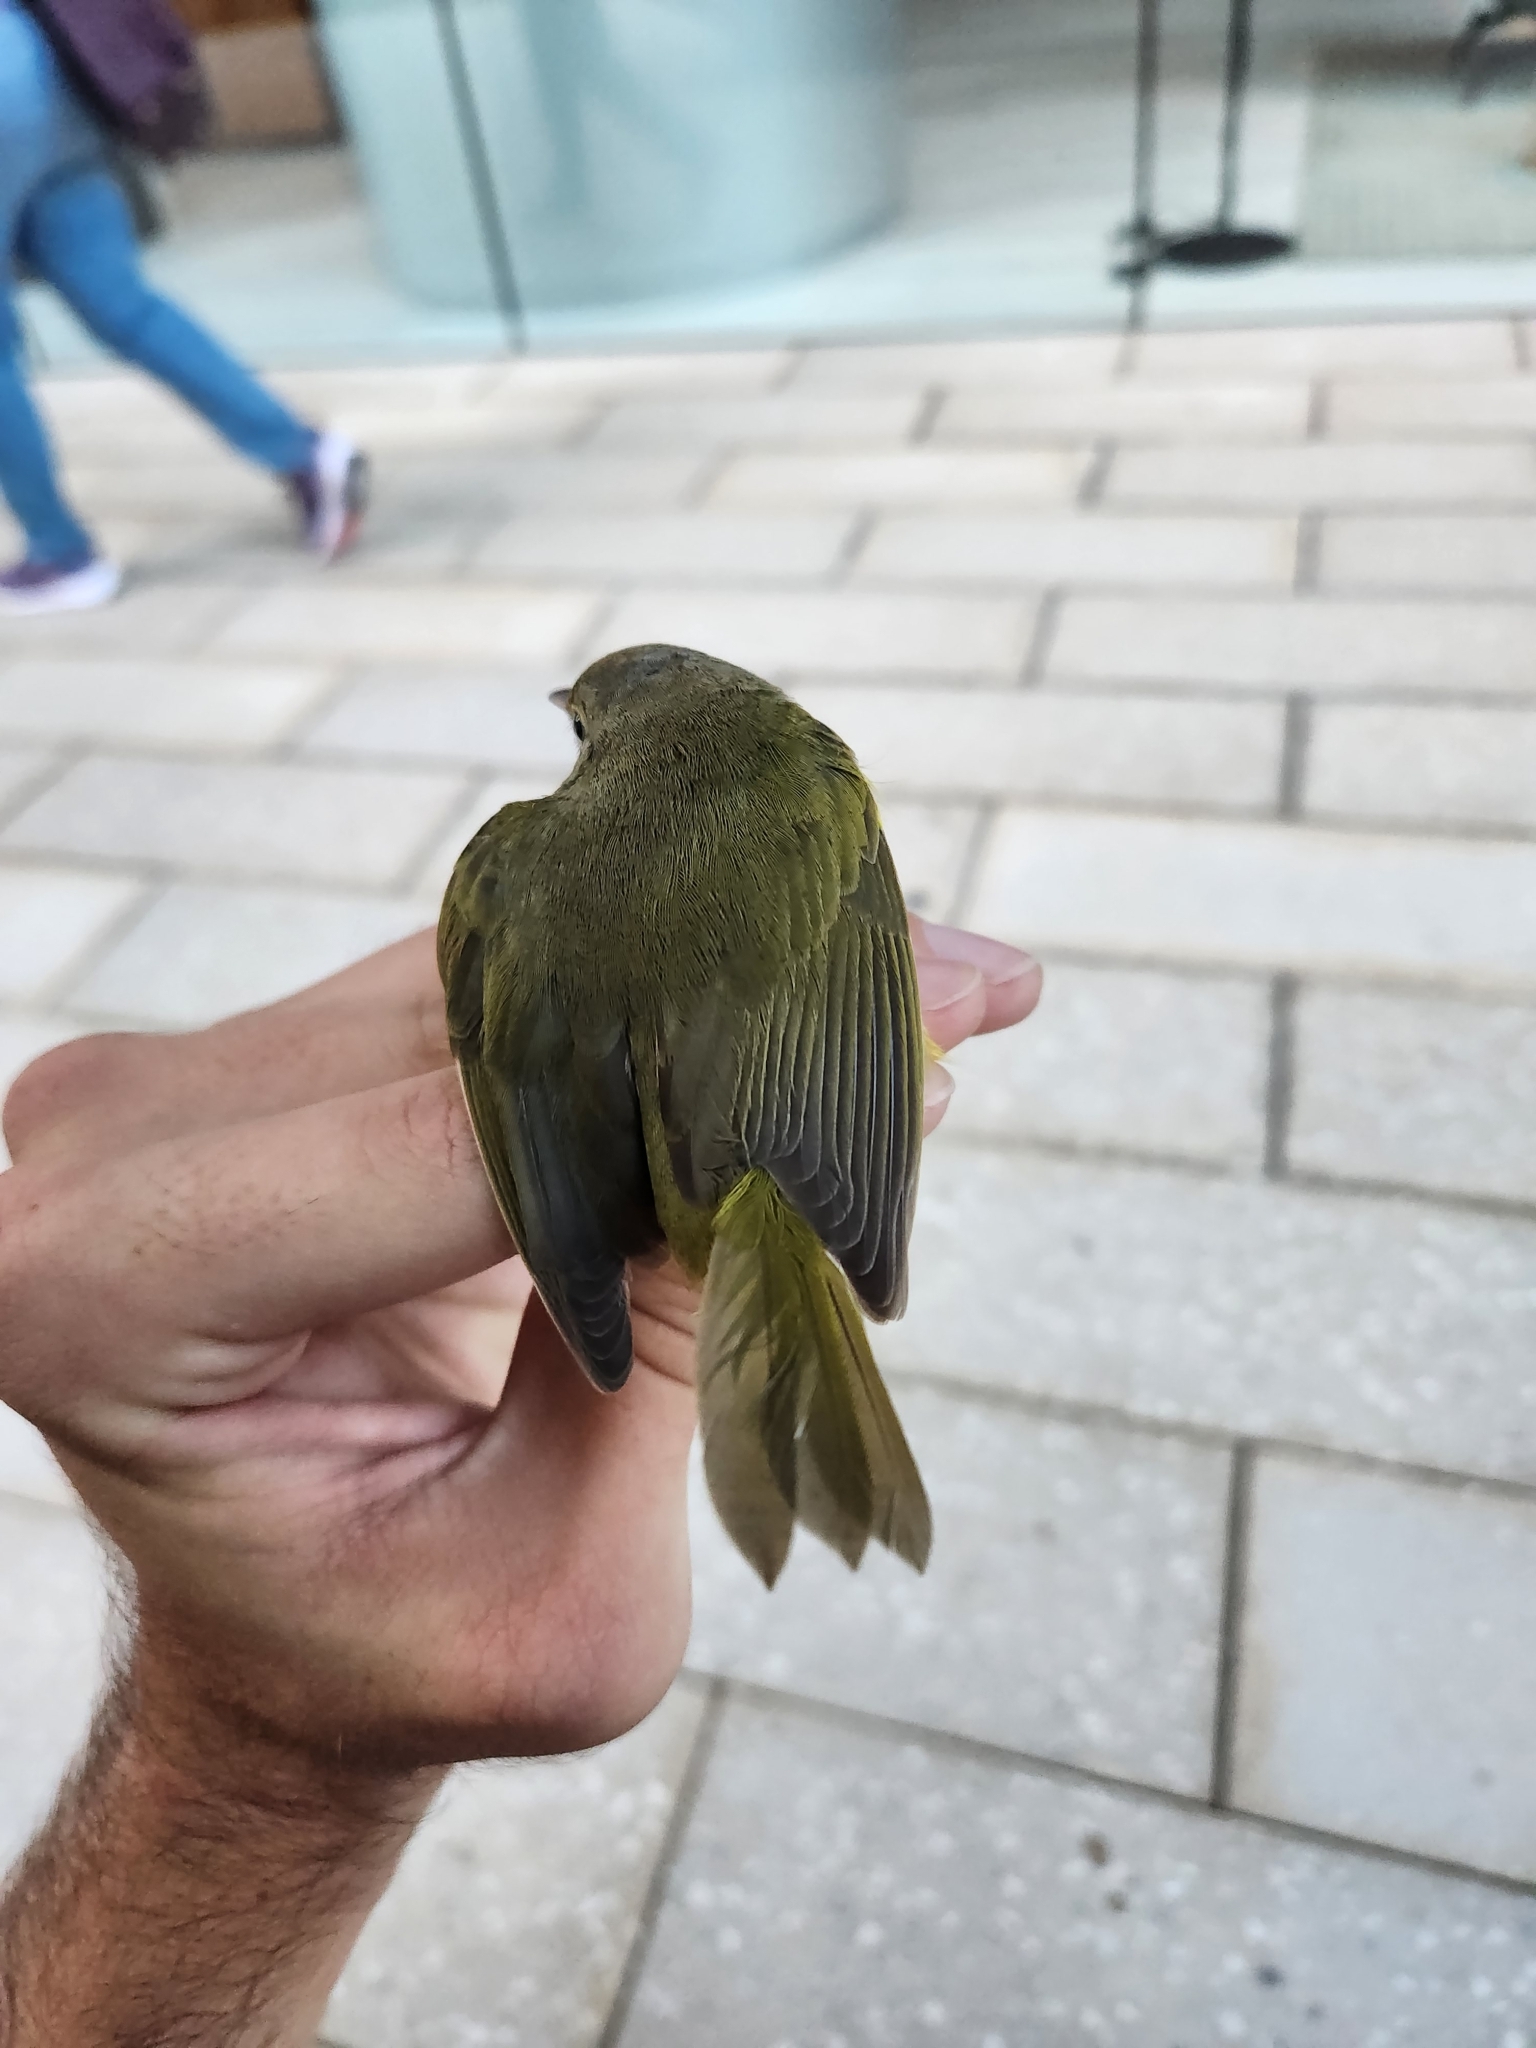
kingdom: Animalia
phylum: Chordata
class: Aves
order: Passeriformes
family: Parulidae
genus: Geothlypis
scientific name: Geothlypis trichas
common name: Common yellowthroat
